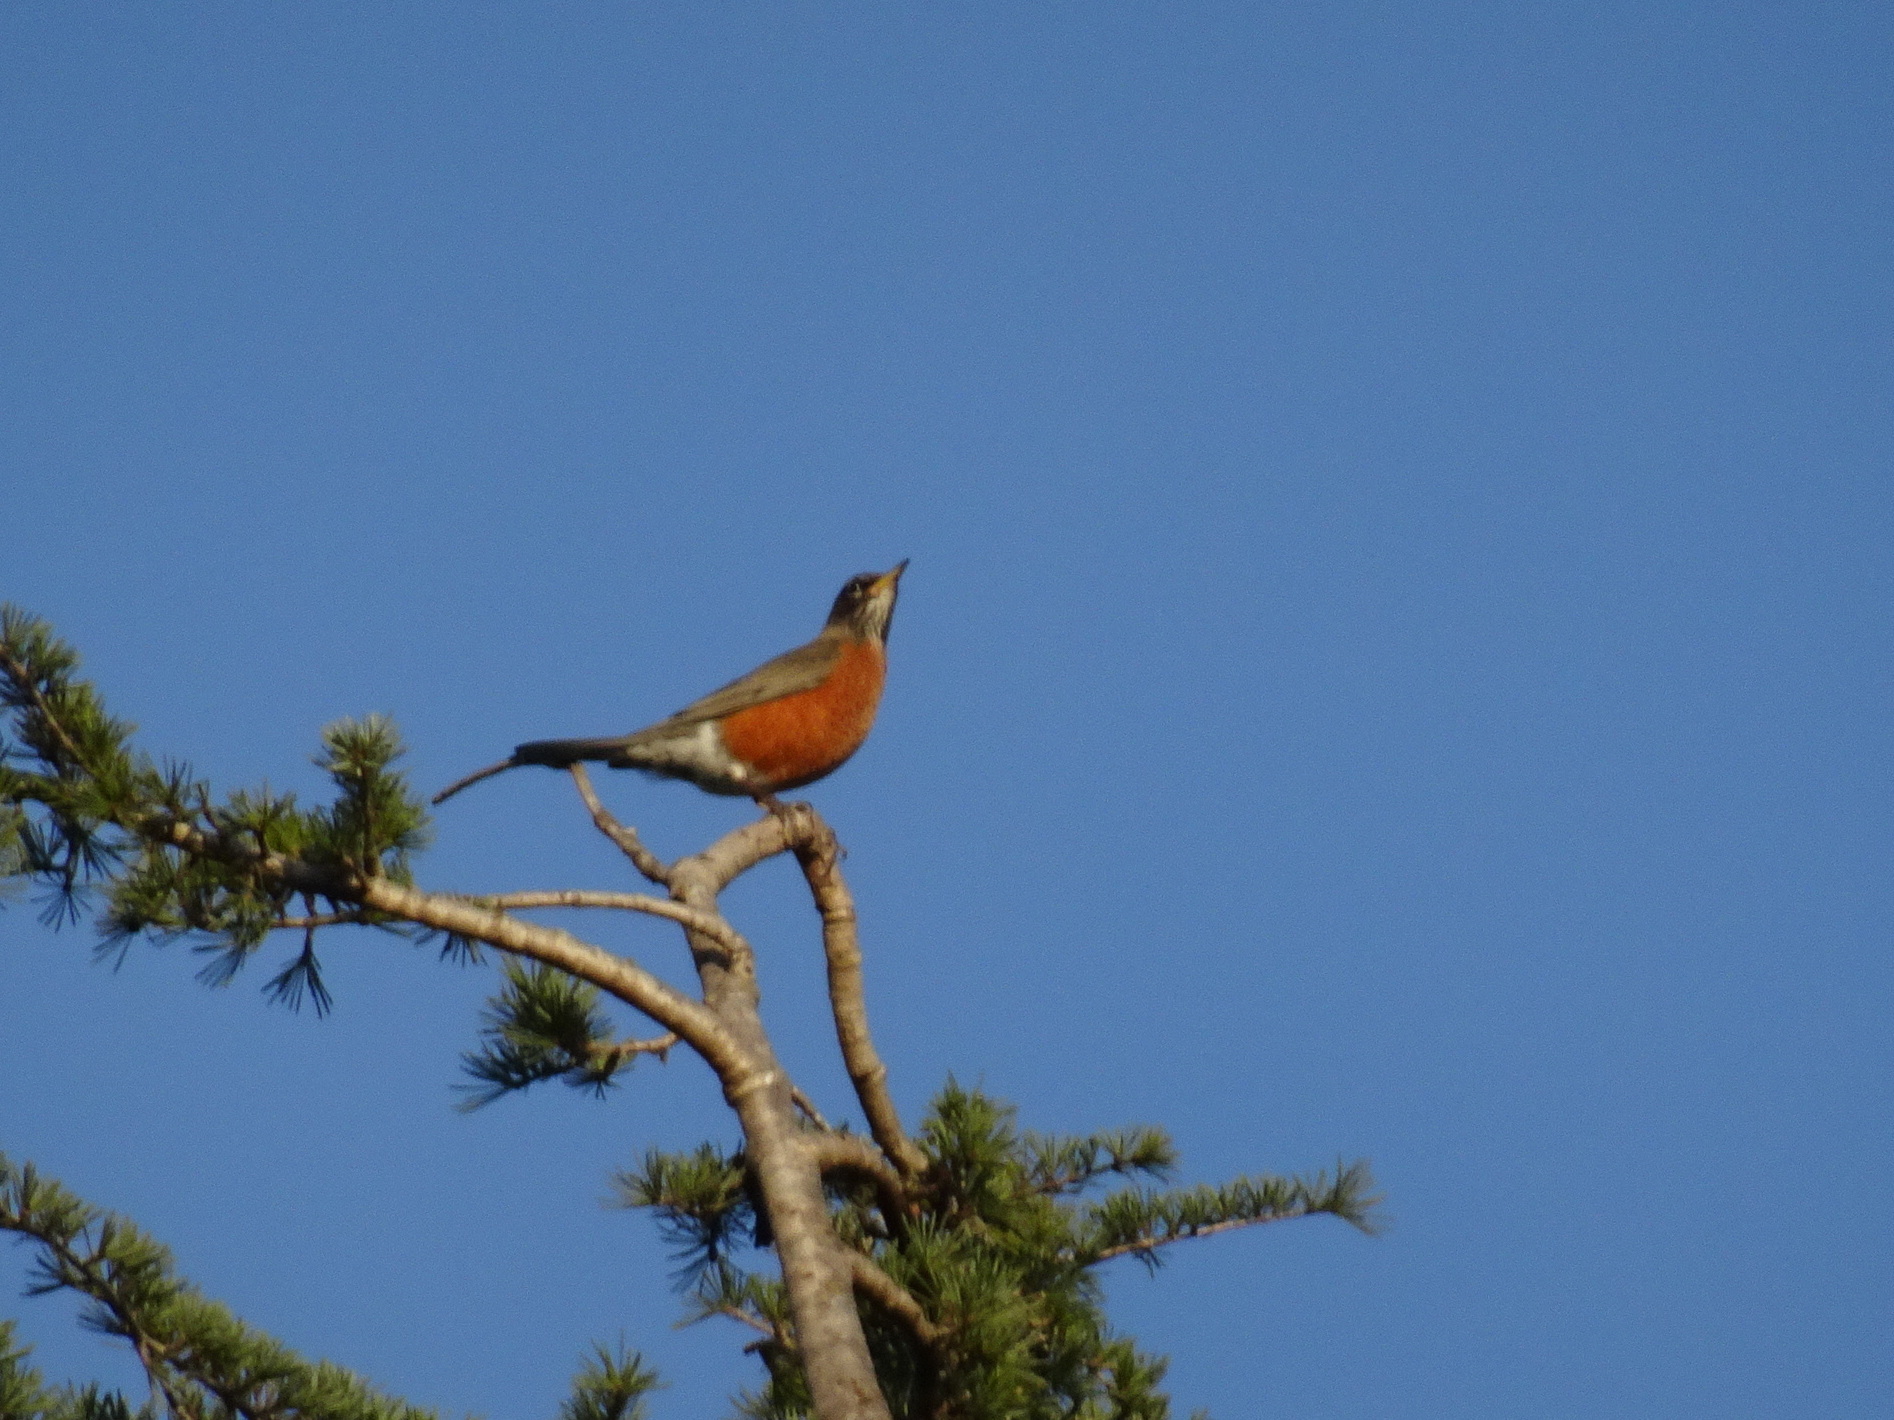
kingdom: Animalia
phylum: Chordata
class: Aves
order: Passeriformes
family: Turdidae
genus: Turdus
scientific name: Turdus migratorius
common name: American robin
